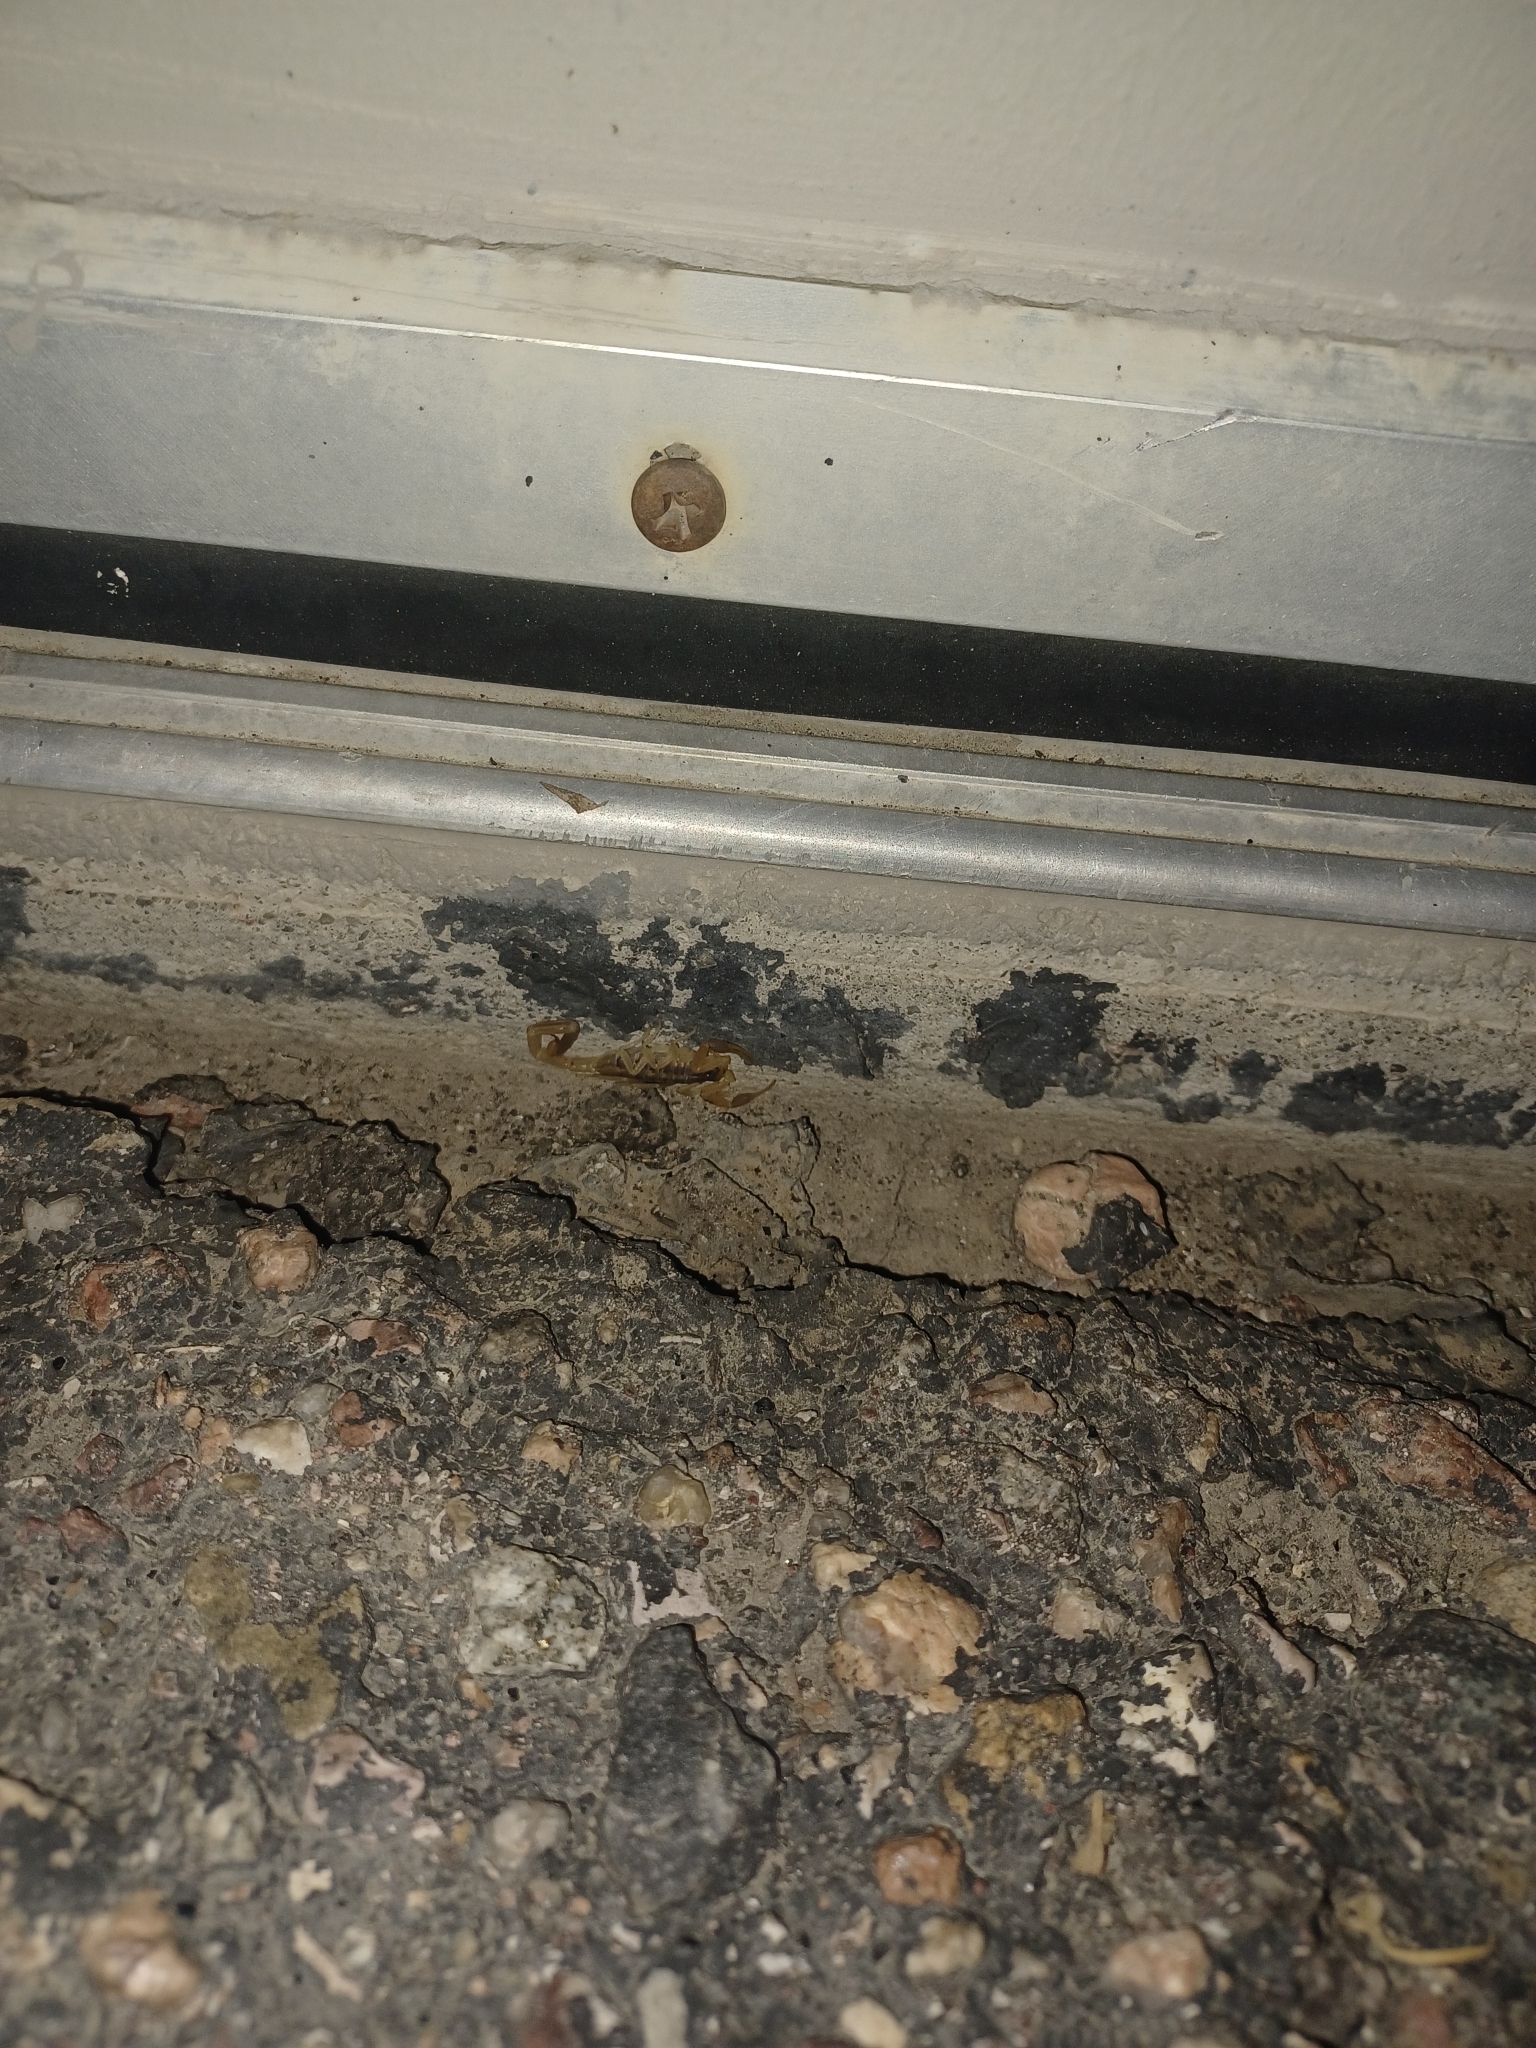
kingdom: Animalia
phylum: Arthropoda
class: Arachnida
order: Scorpiones
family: Buthidae
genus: Centruroides
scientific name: Centruroides vittatus
